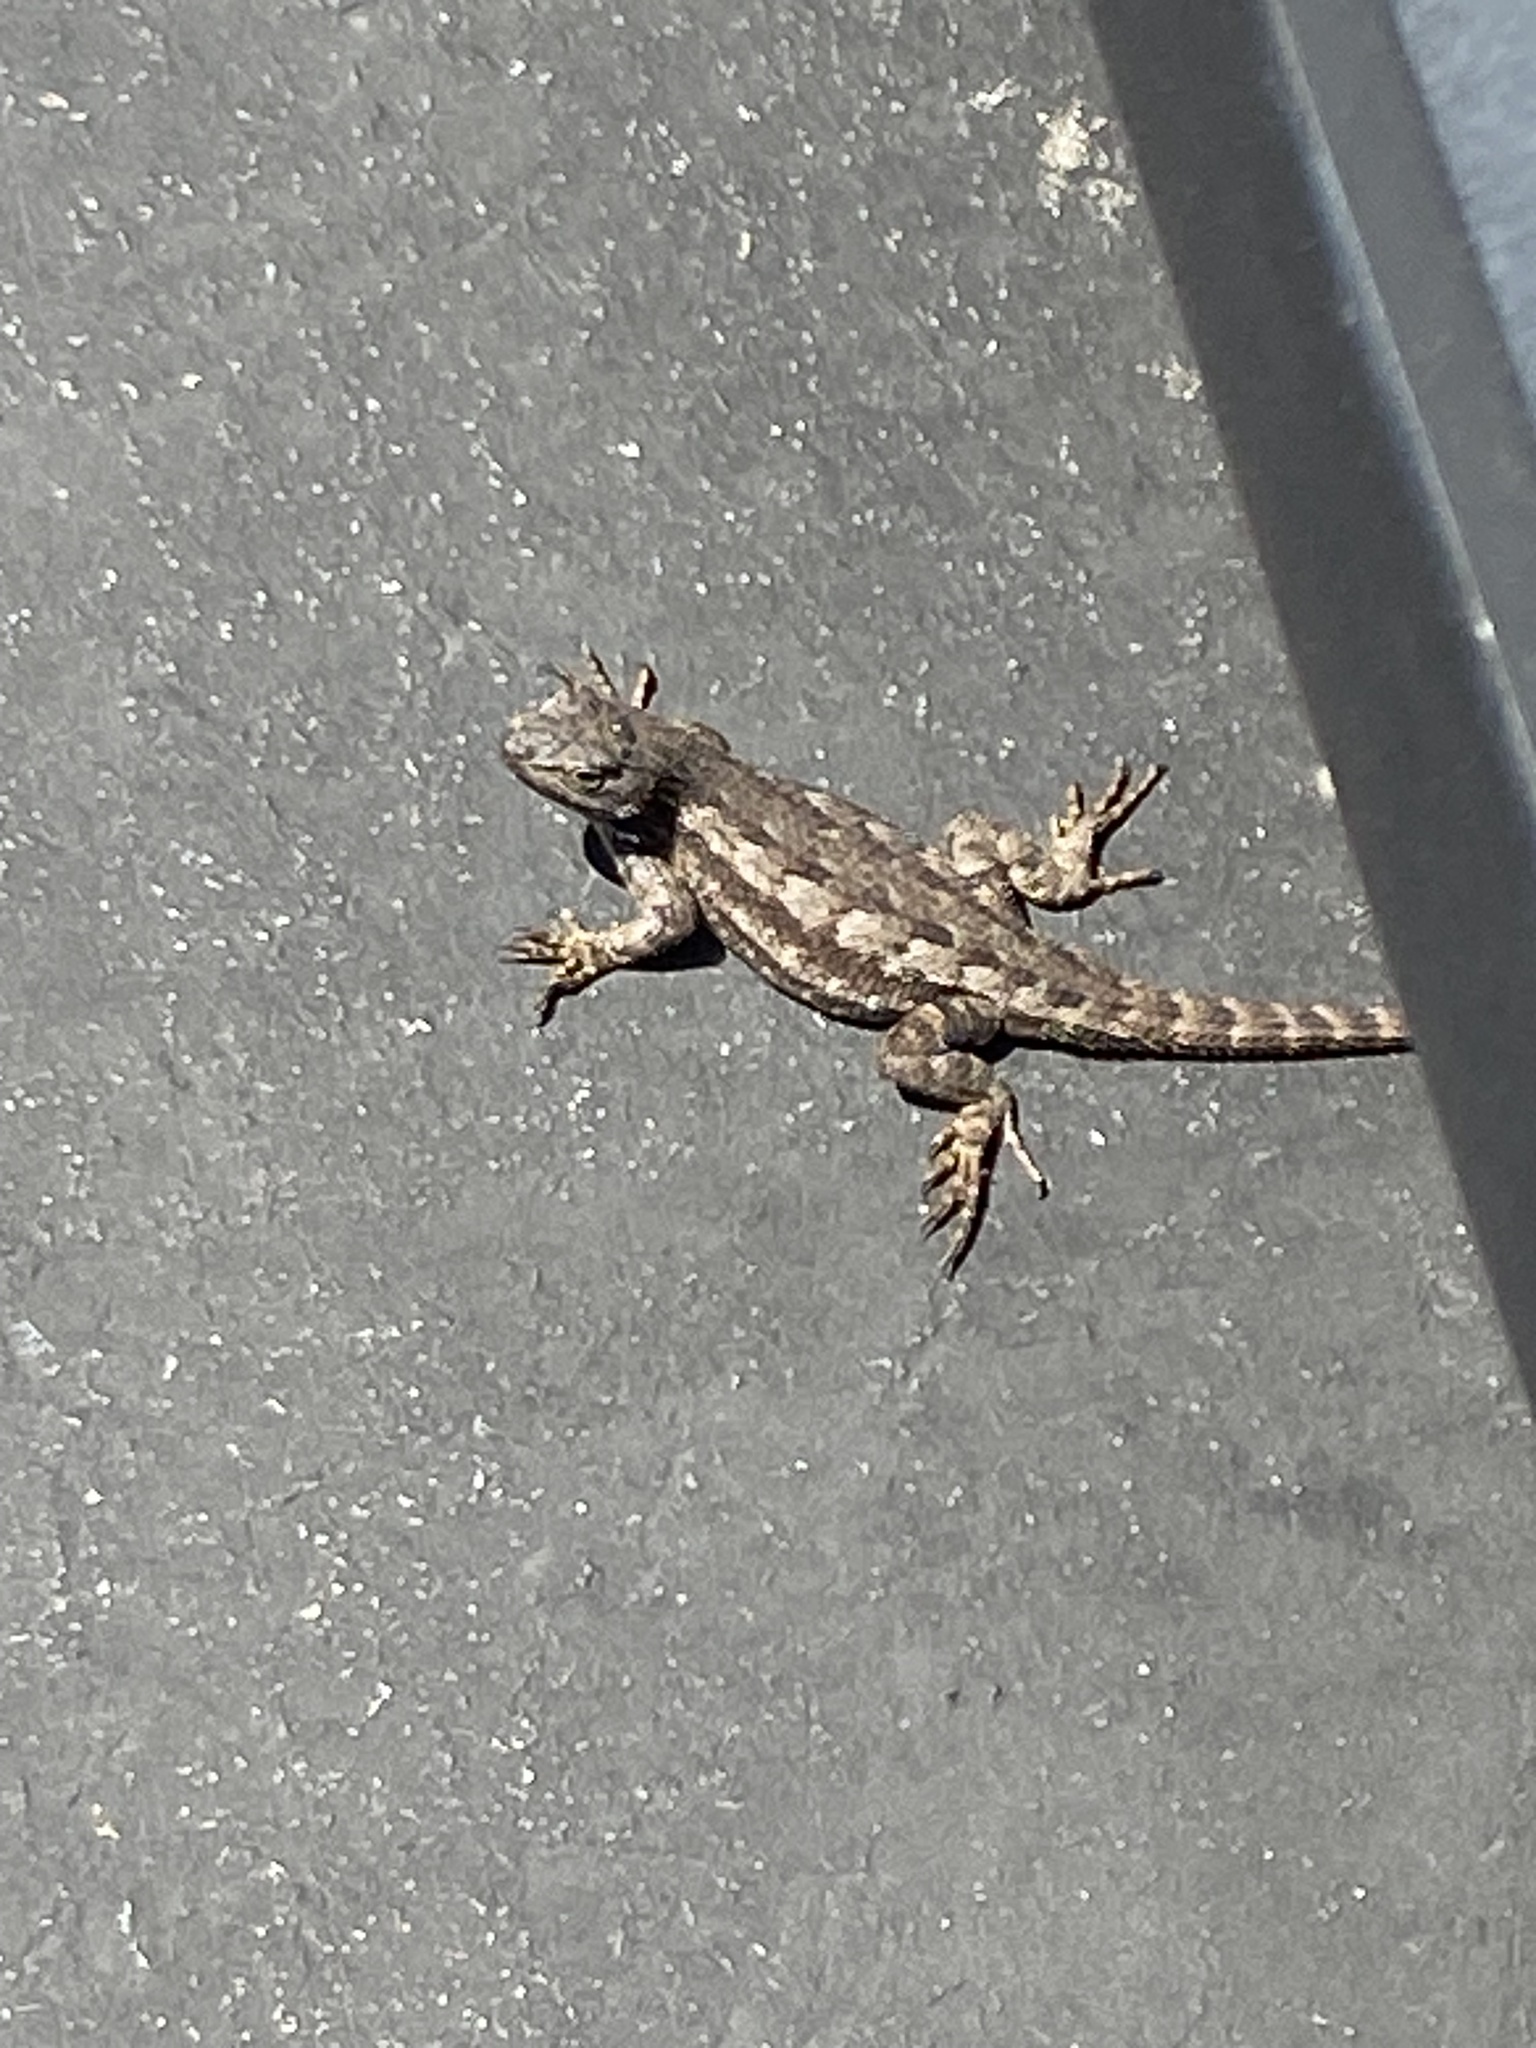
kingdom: Animalia
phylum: Chordata
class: Squamata
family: Phrynosomatidae
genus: Sceloporus
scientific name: Sceloporus occidentalis
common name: Western fence lizard
